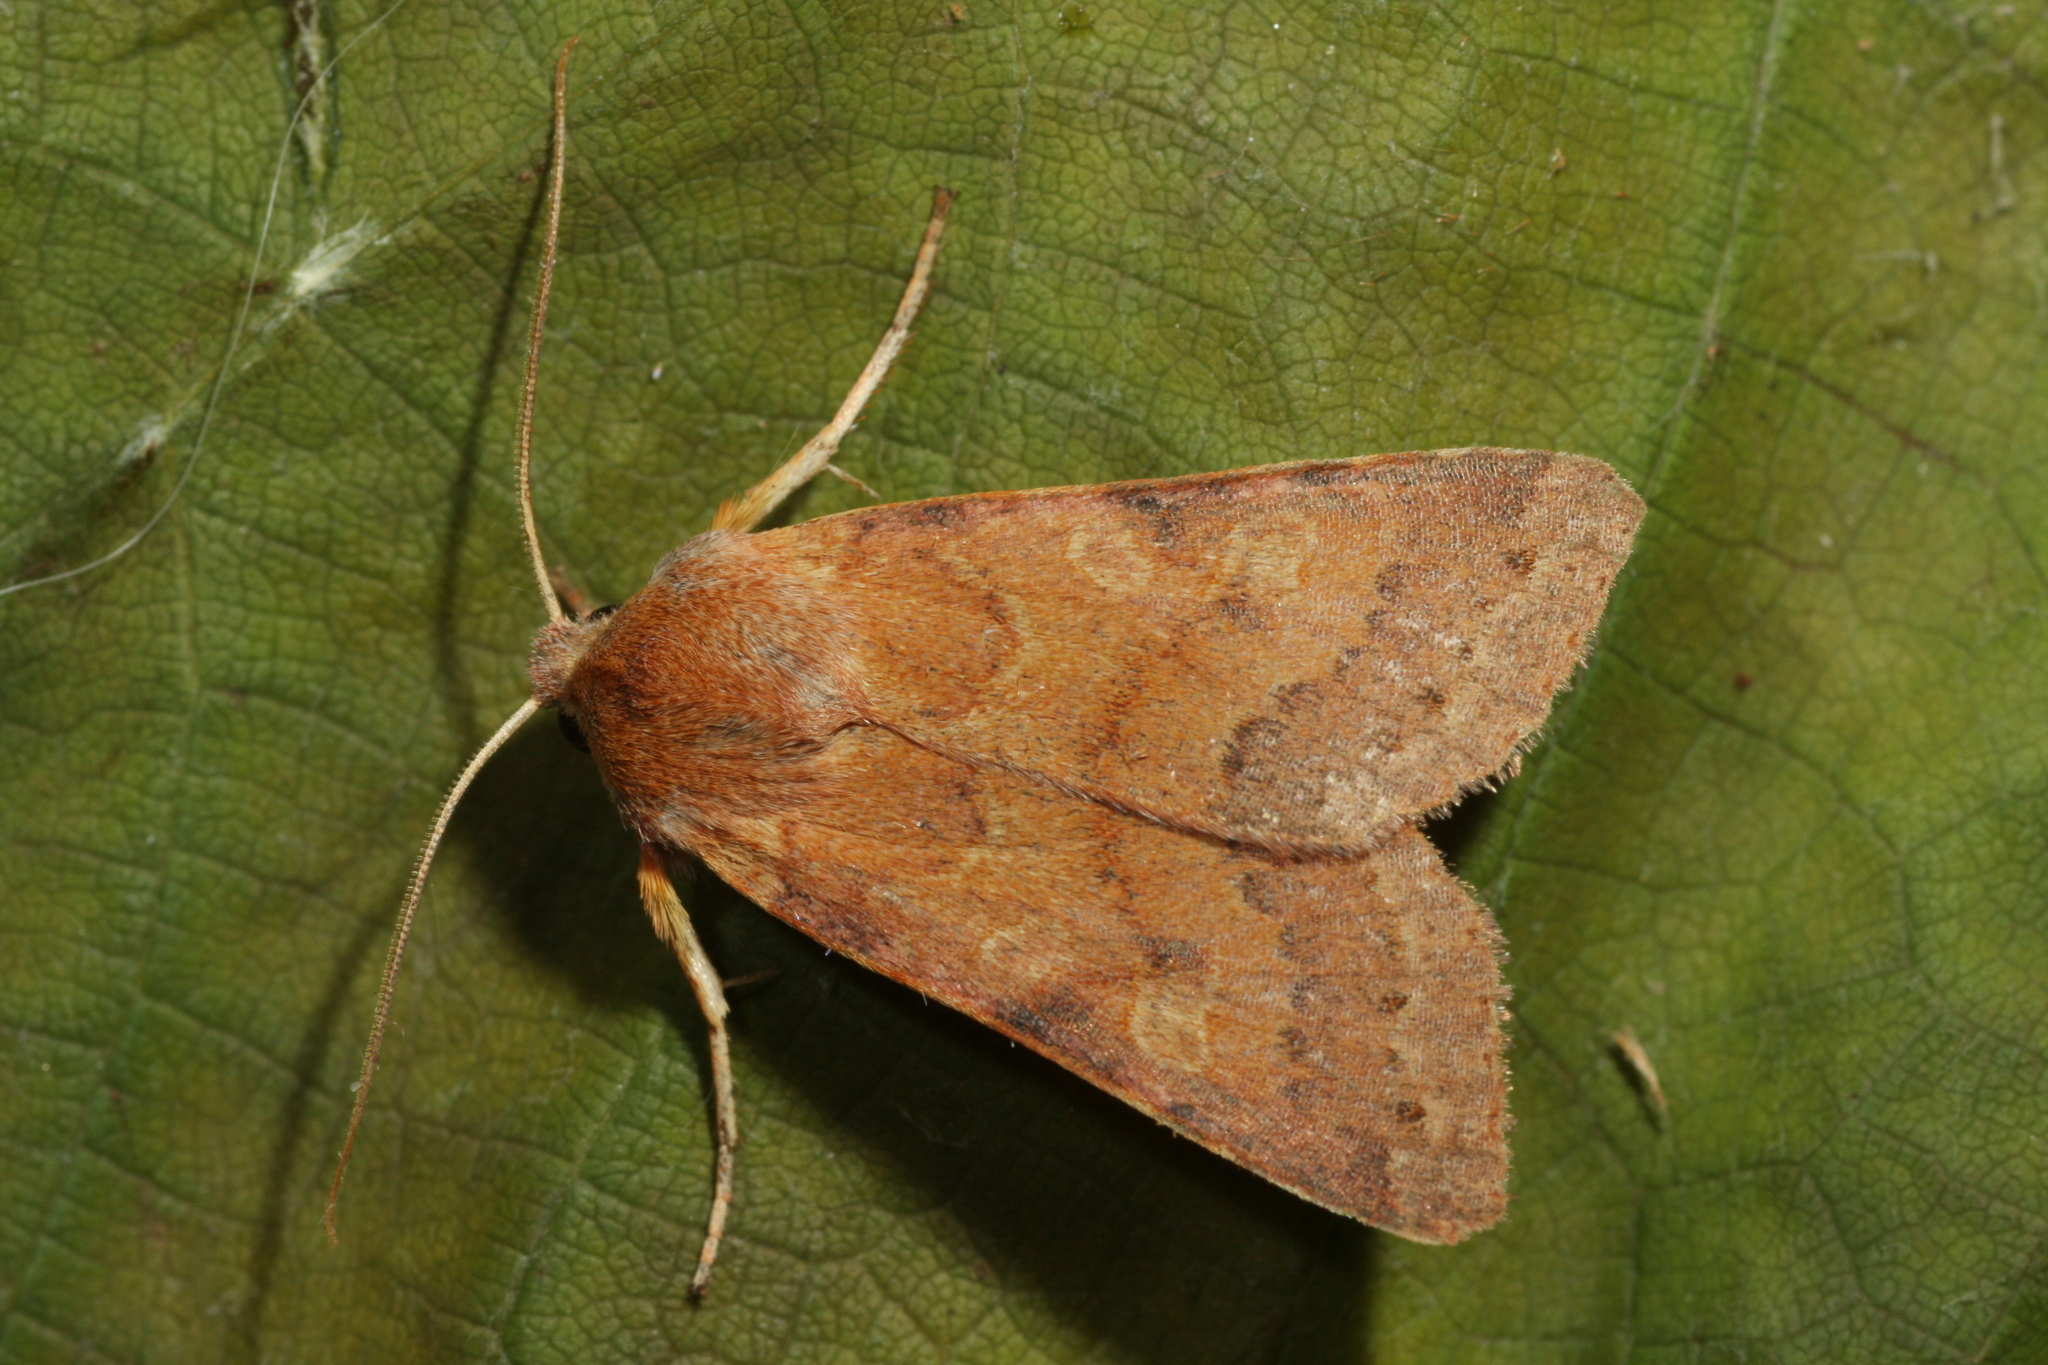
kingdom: Animalia
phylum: Arthropoda
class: Insecta
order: Lepidoptera
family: Noctuidae
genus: Agrochola
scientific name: Agrochola helvola
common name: Flounced chestnut
